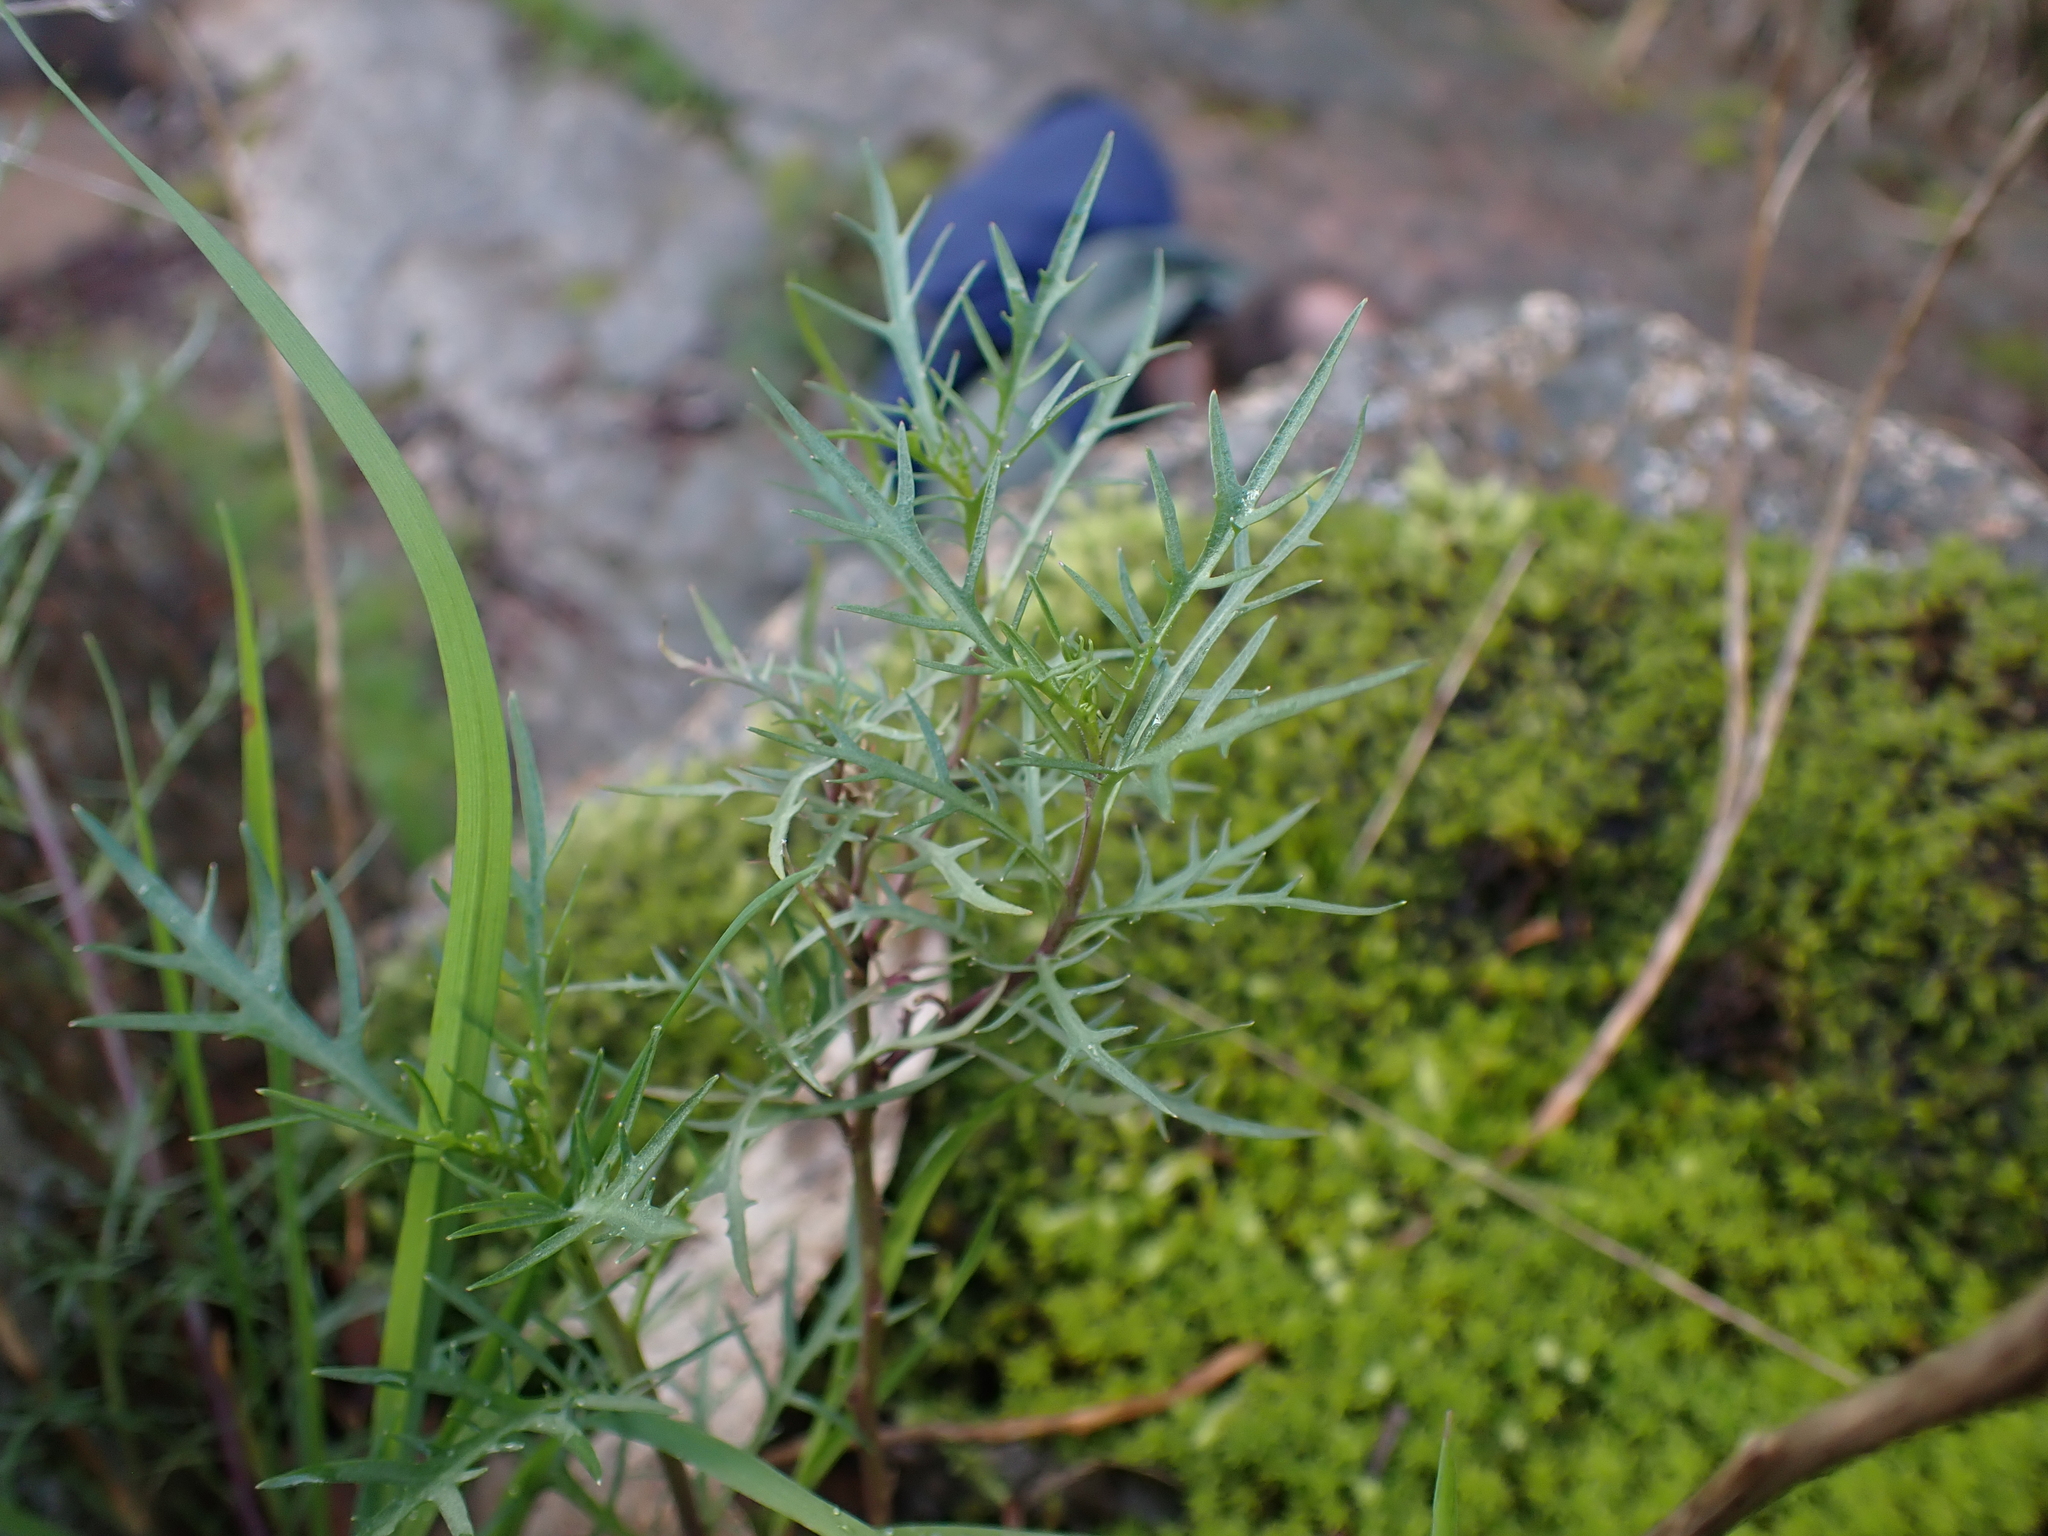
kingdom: Plantae
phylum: Tracheophyta
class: Magnoliopsida
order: Asterales
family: Campanulaceae
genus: Lithotoma
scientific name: Lithotoma axillaris
